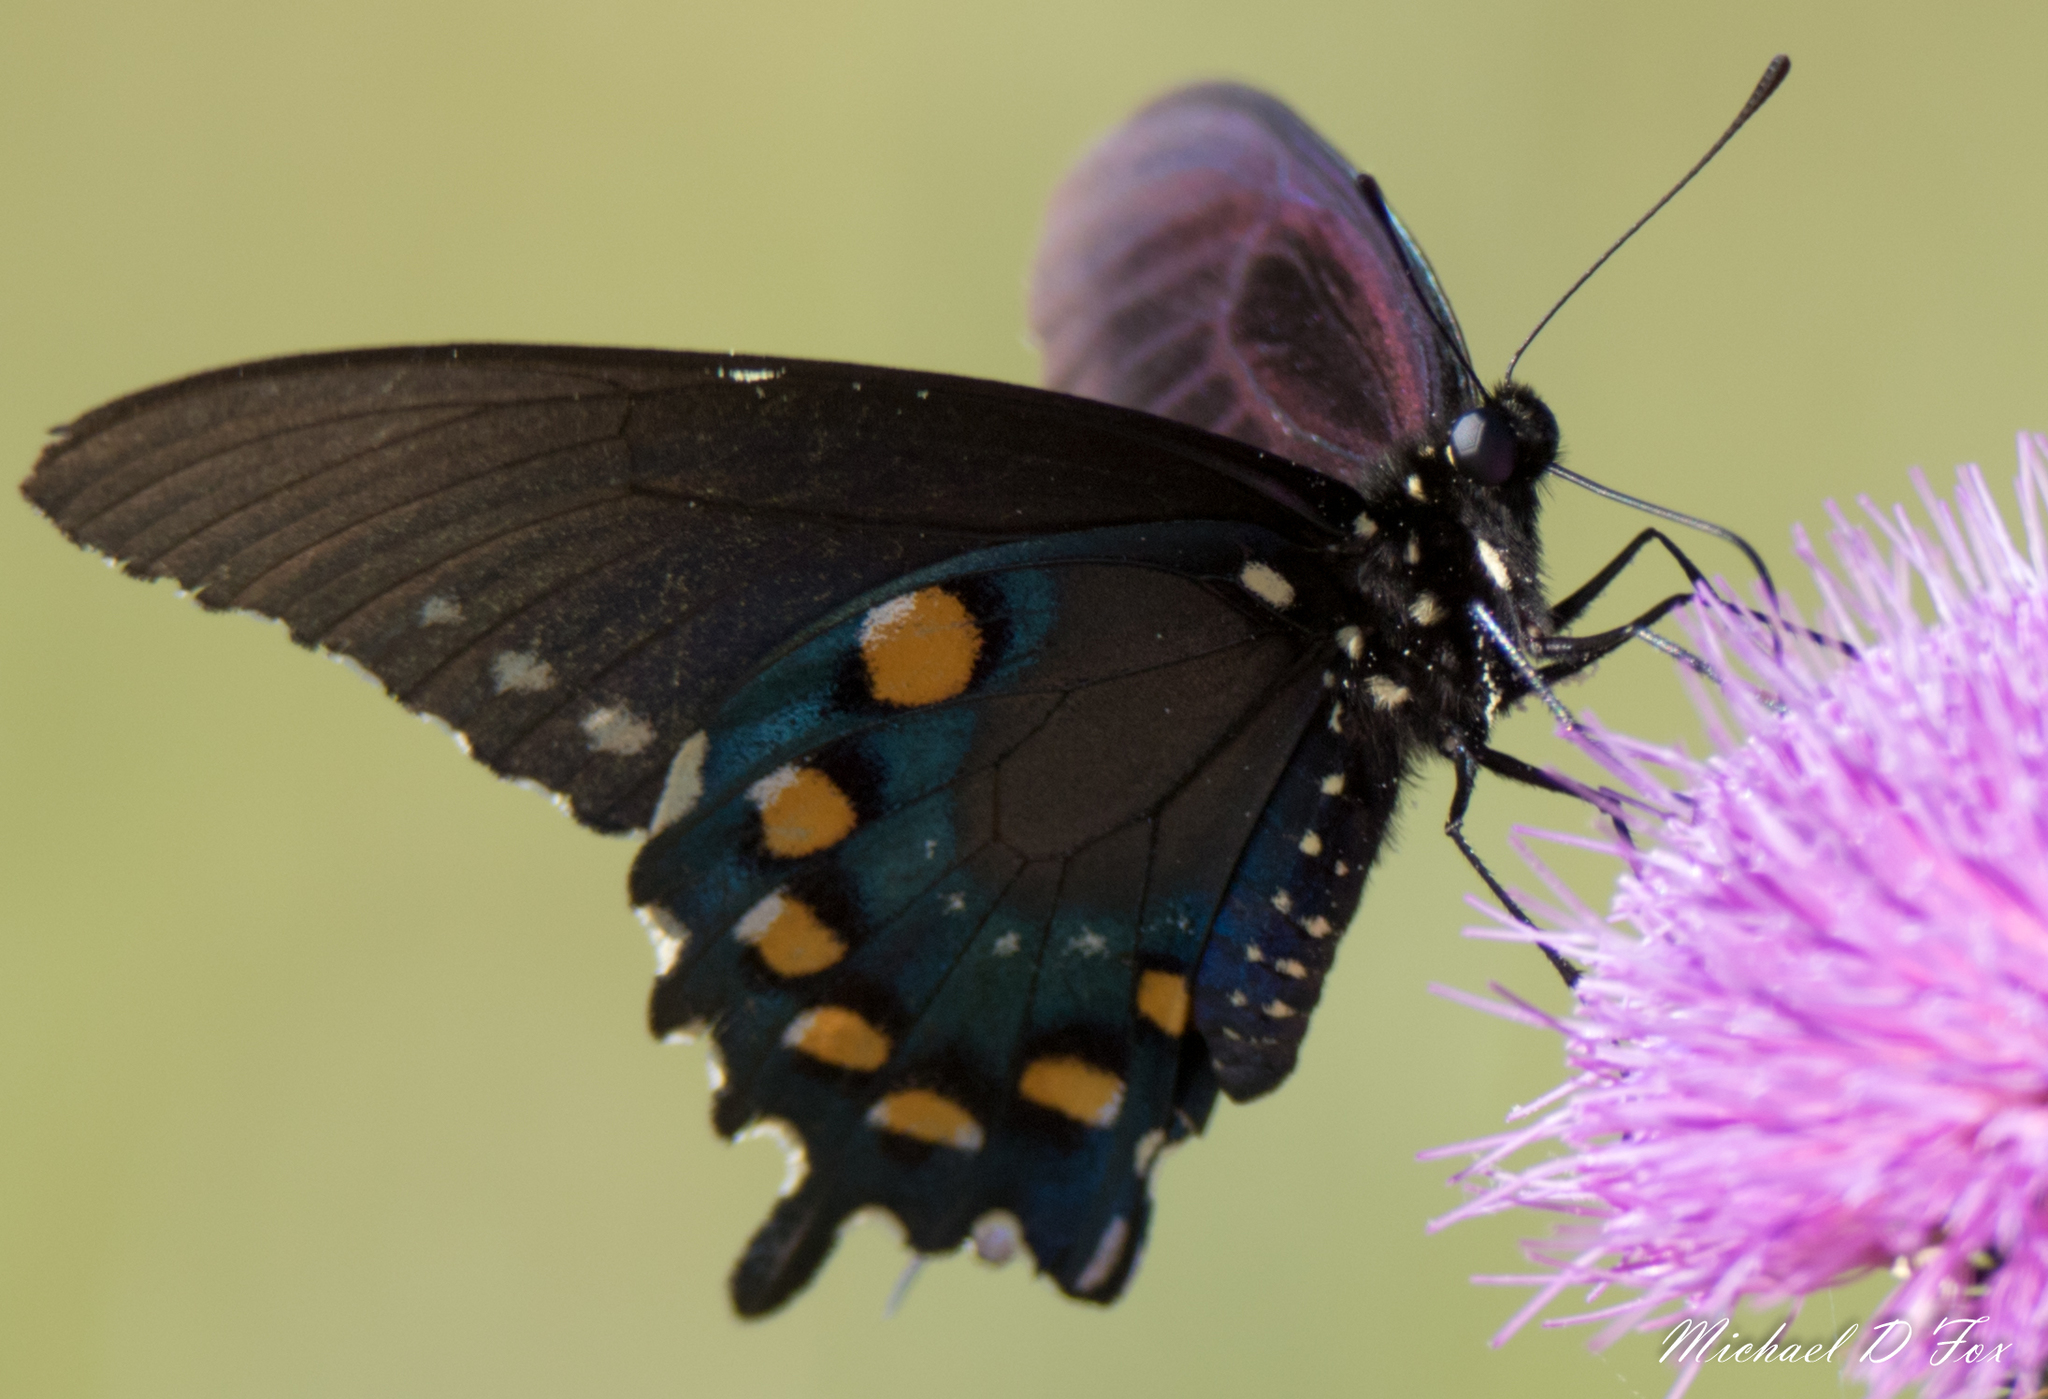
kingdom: Animalia
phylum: Arthropoda
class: Insecta
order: Lepidoptera
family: Papilionidae
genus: Battus
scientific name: Battus philenor
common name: Pipevine swallowtail
